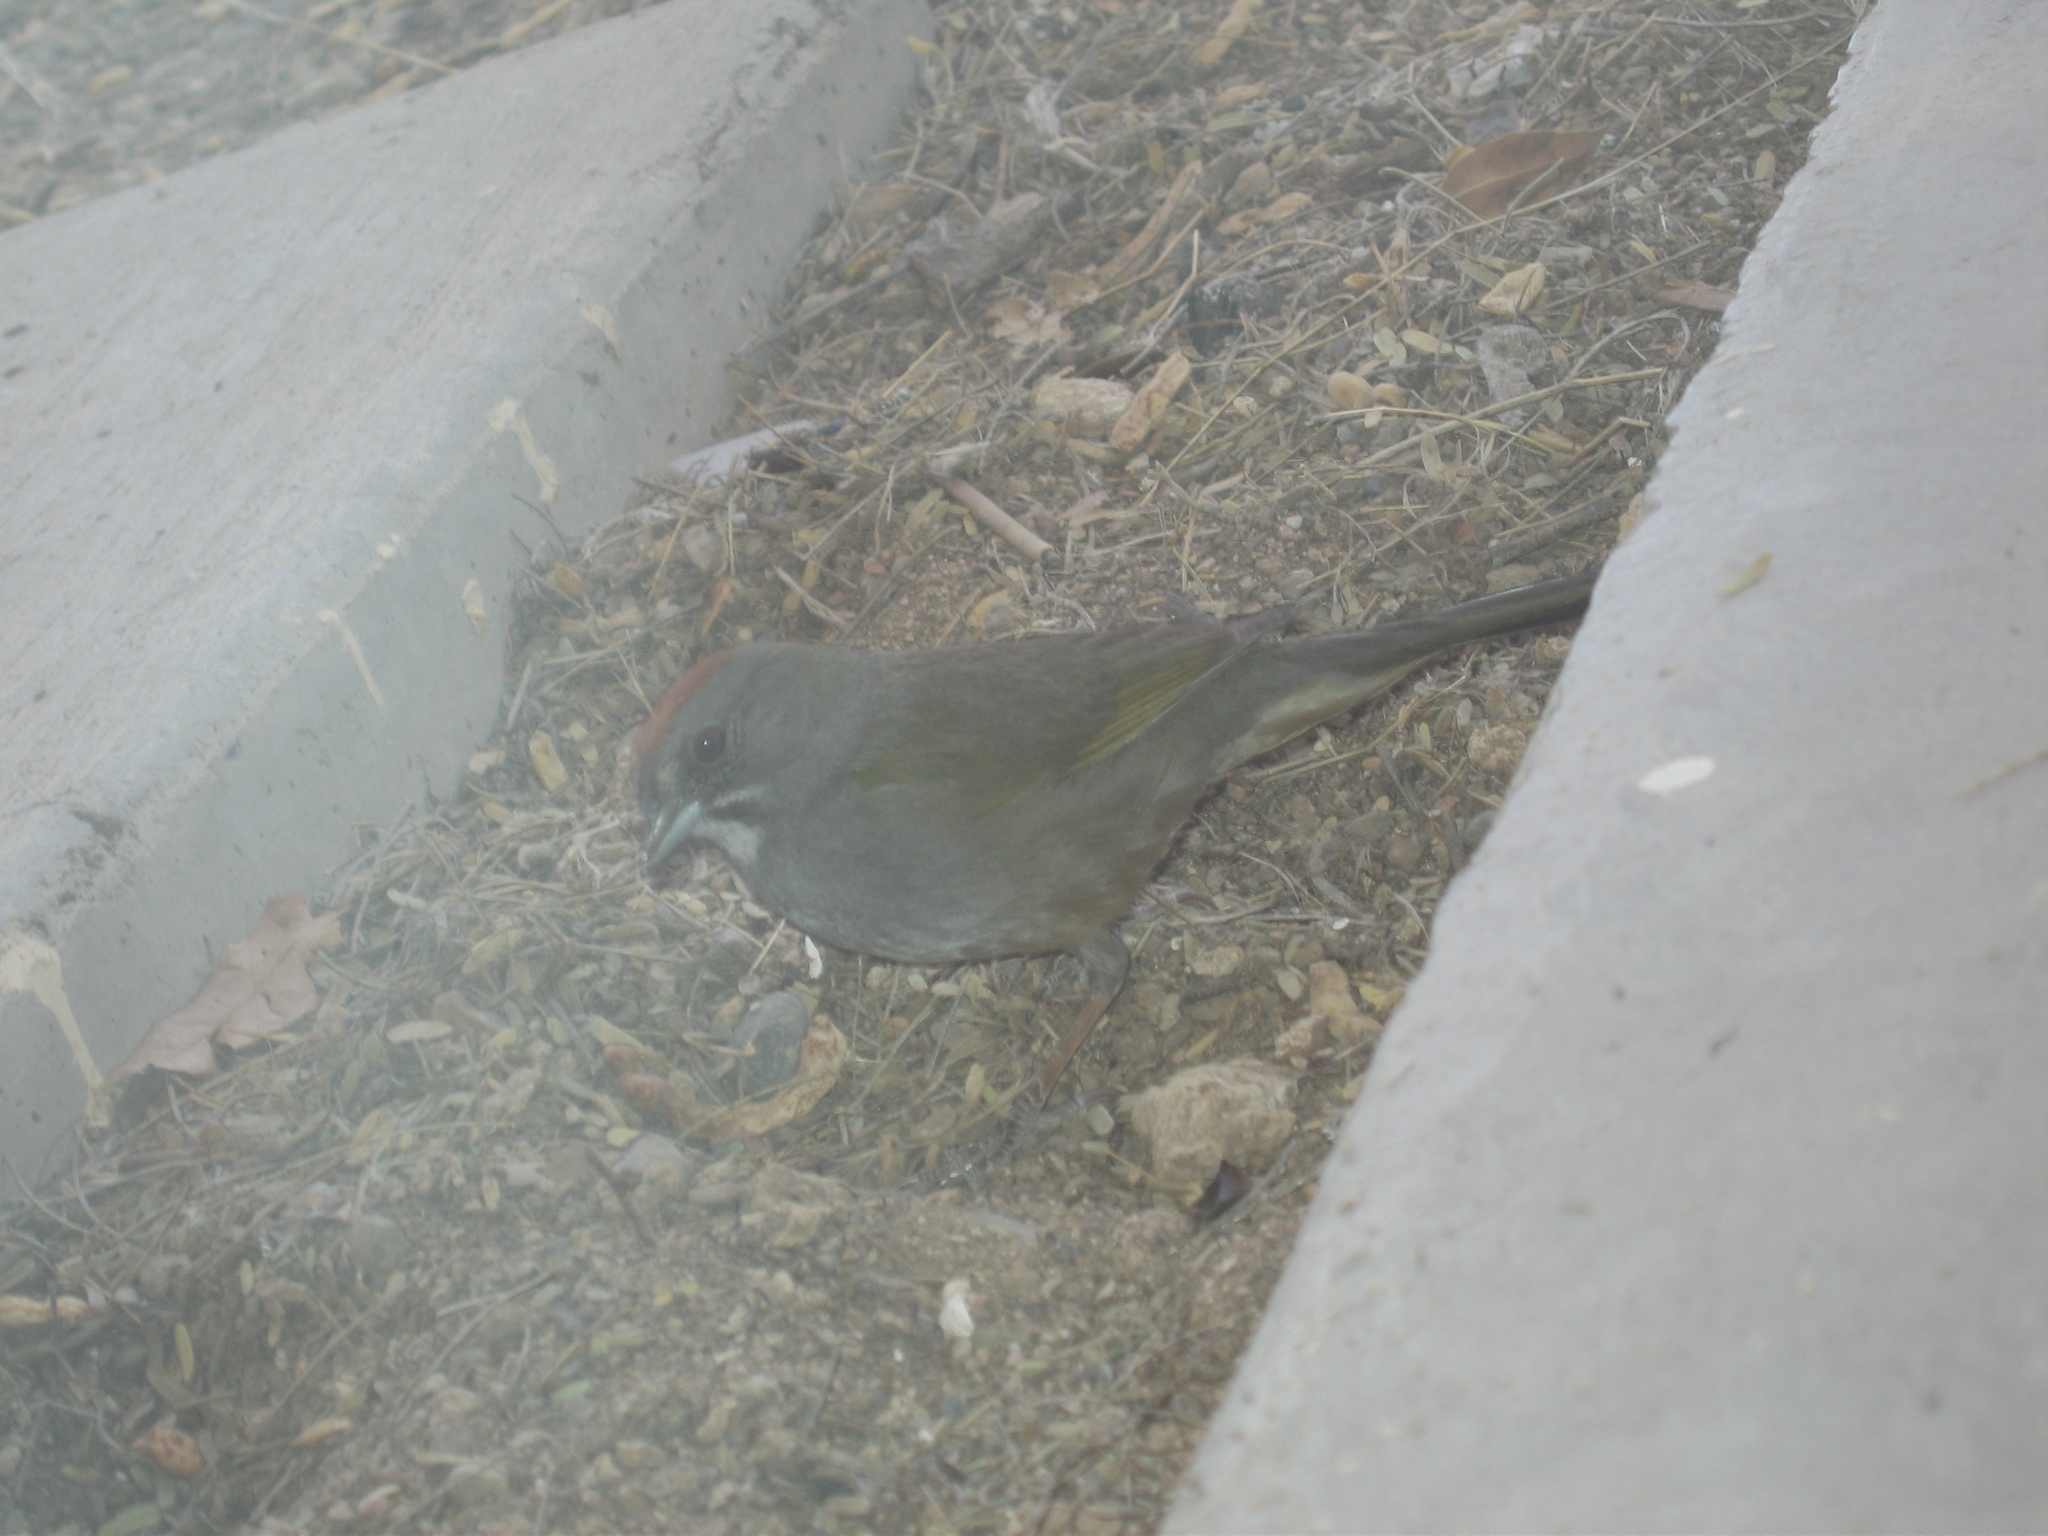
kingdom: Animalia
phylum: Chordata
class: Aves
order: Passeriformes
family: Passerellidae
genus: Pipilo
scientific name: Pipilo chlorurus
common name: Green-tailed towhee
